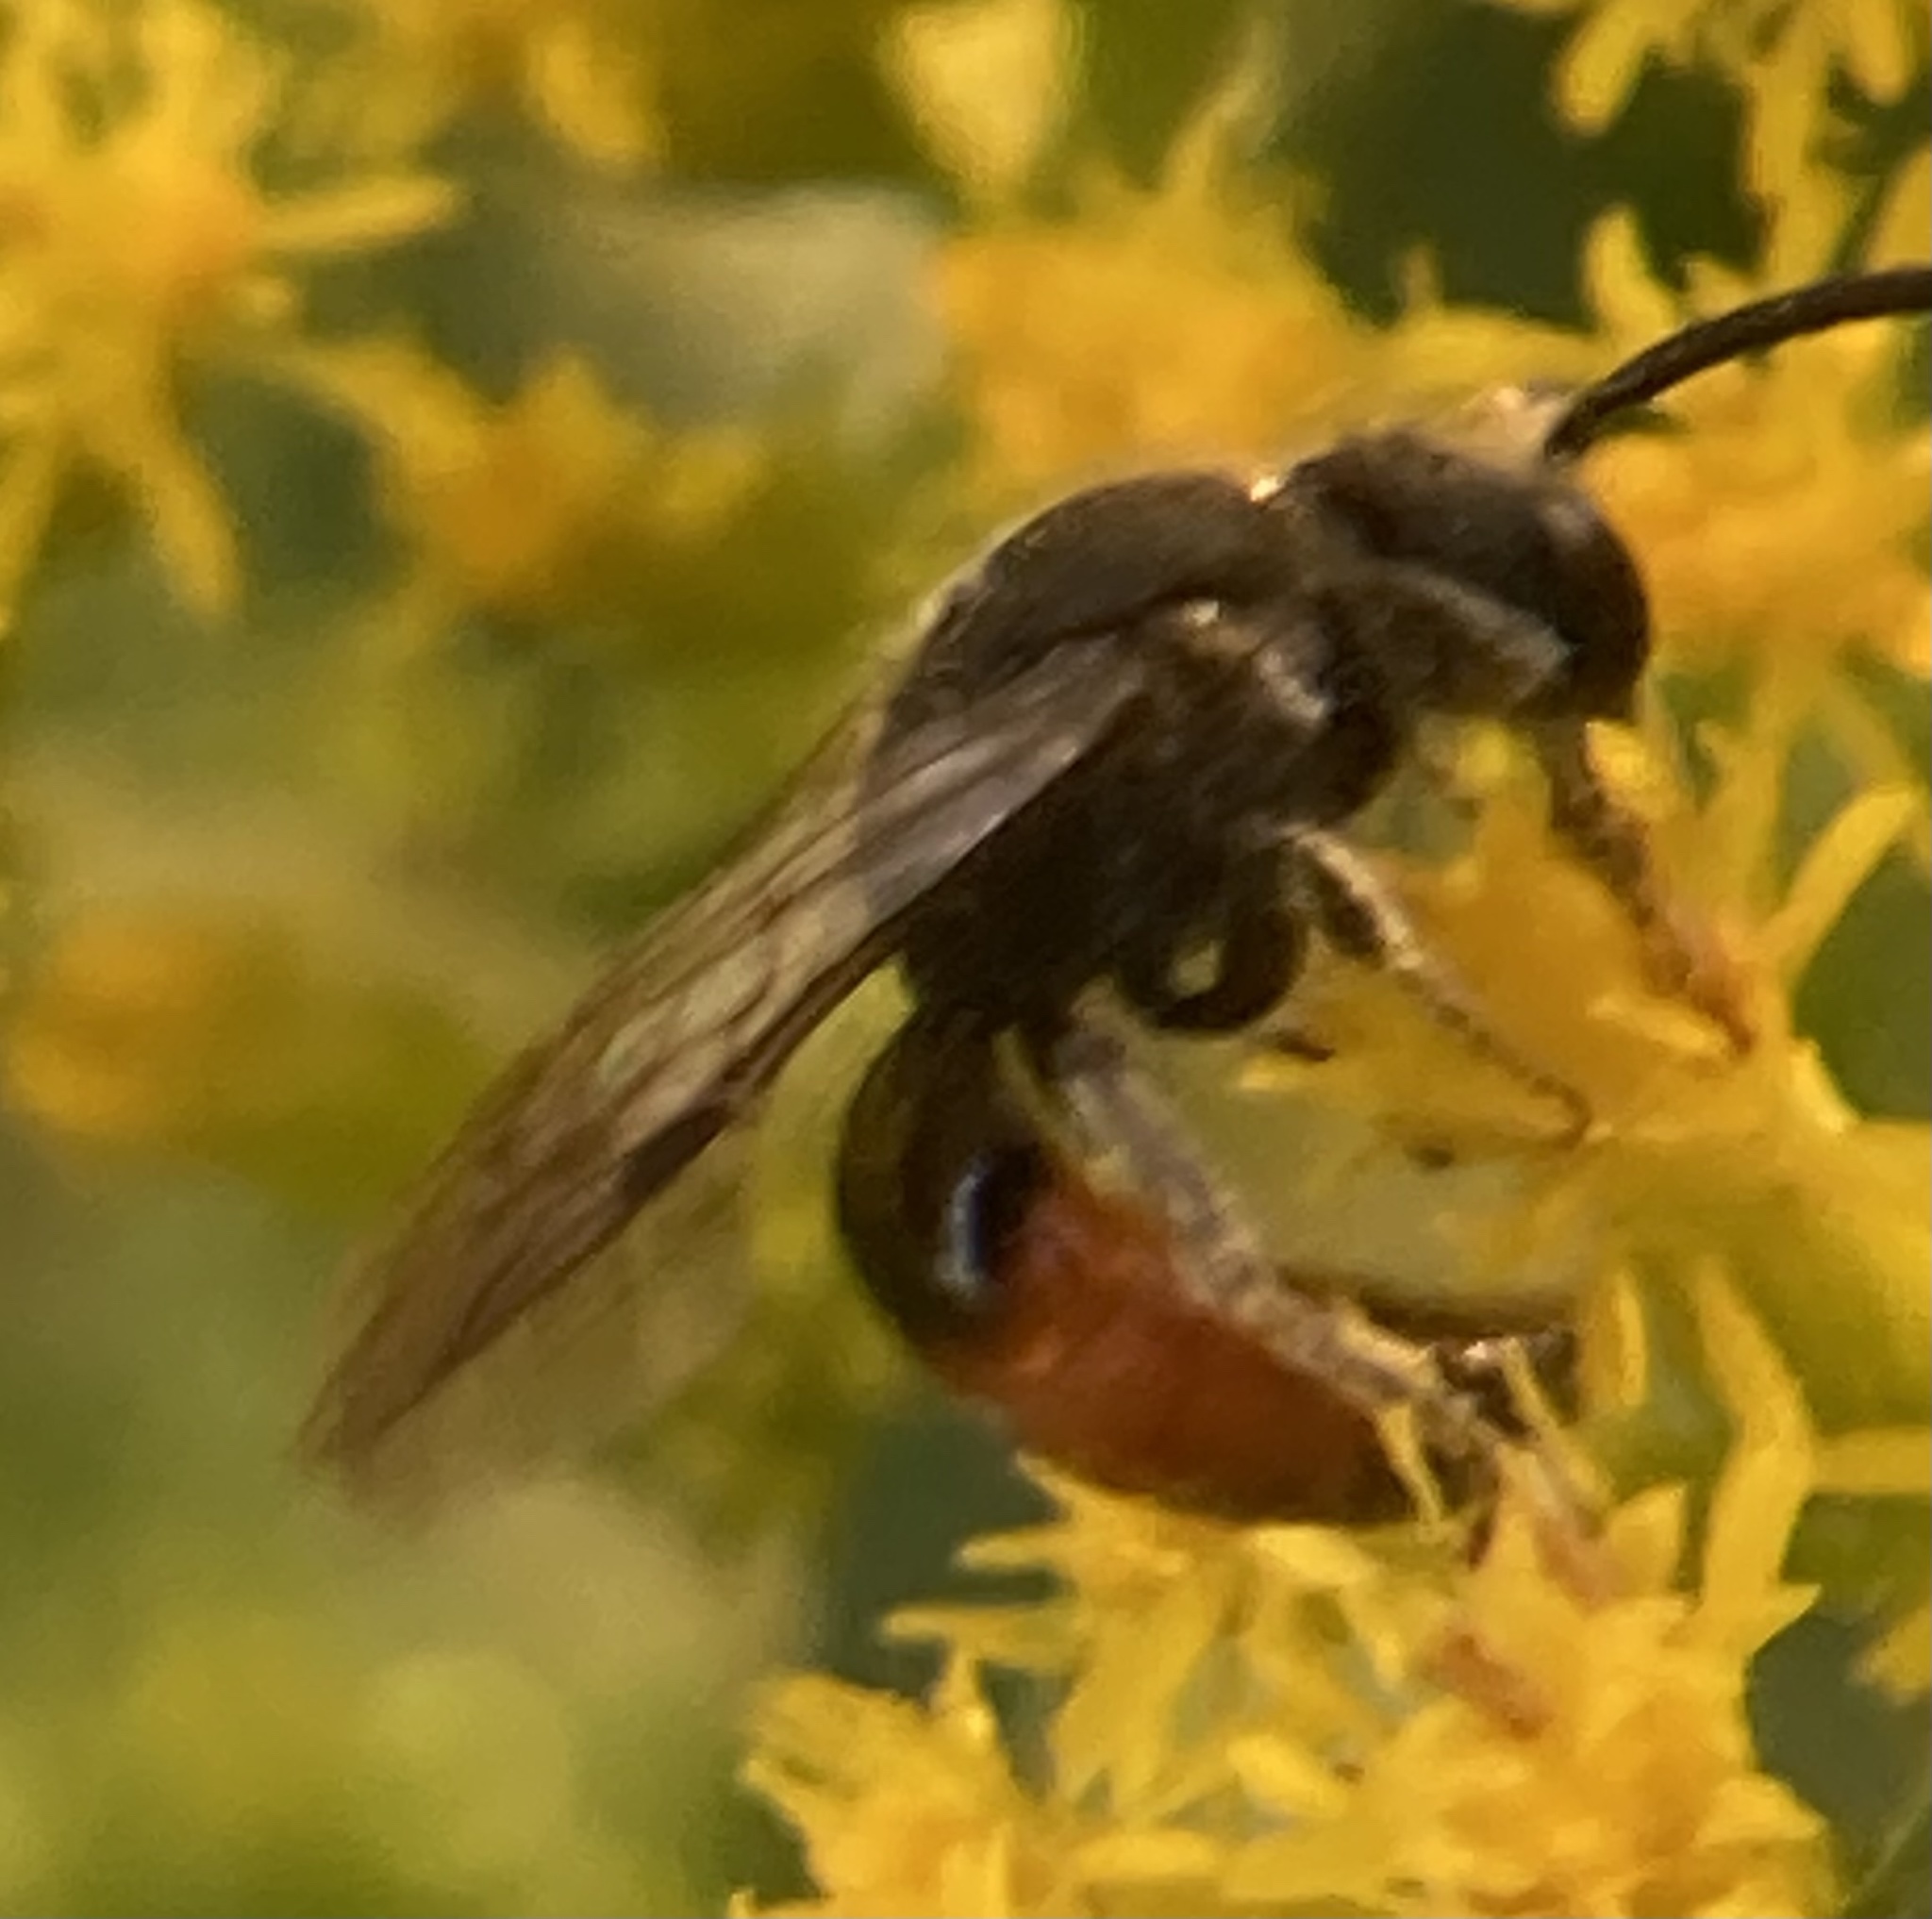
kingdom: Animalia
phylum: Arthropoda
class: Insecta
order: Hymenoptera
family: Halictidae
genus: Sphecodes
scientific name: Sphecodes
